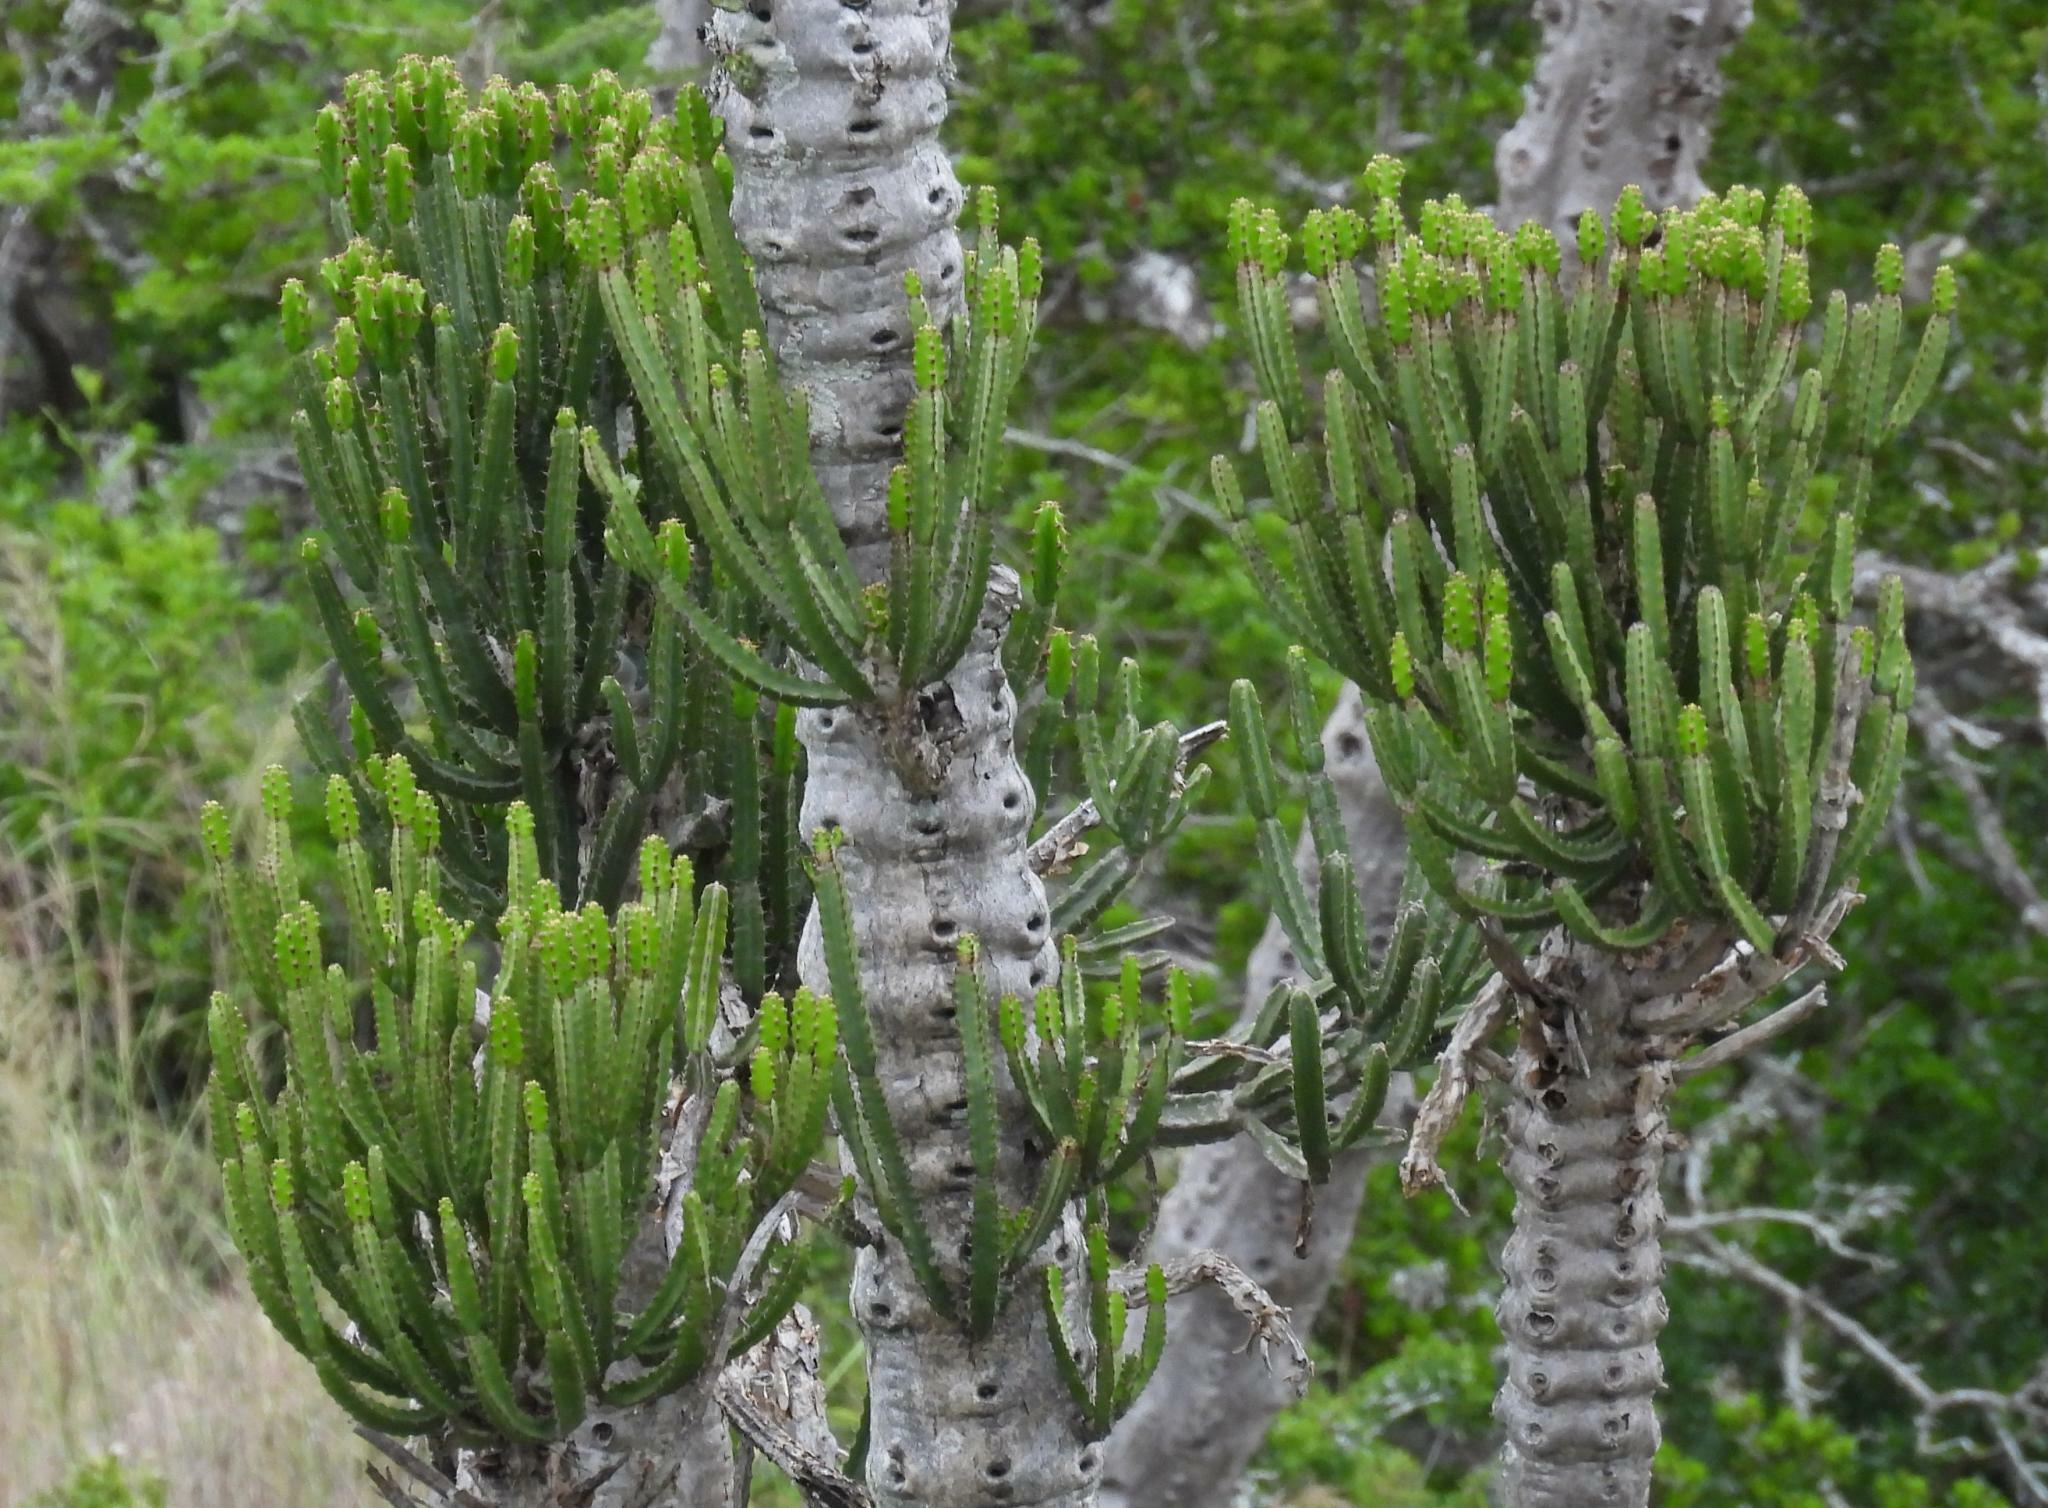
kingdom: Plantae
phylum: Tracheophyta
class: Magnoliopsida
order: Malpighiales
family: Euphorbiaceae
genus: Euphorbia
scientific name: Euphorbia tetragona
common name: Honey euphorbia
